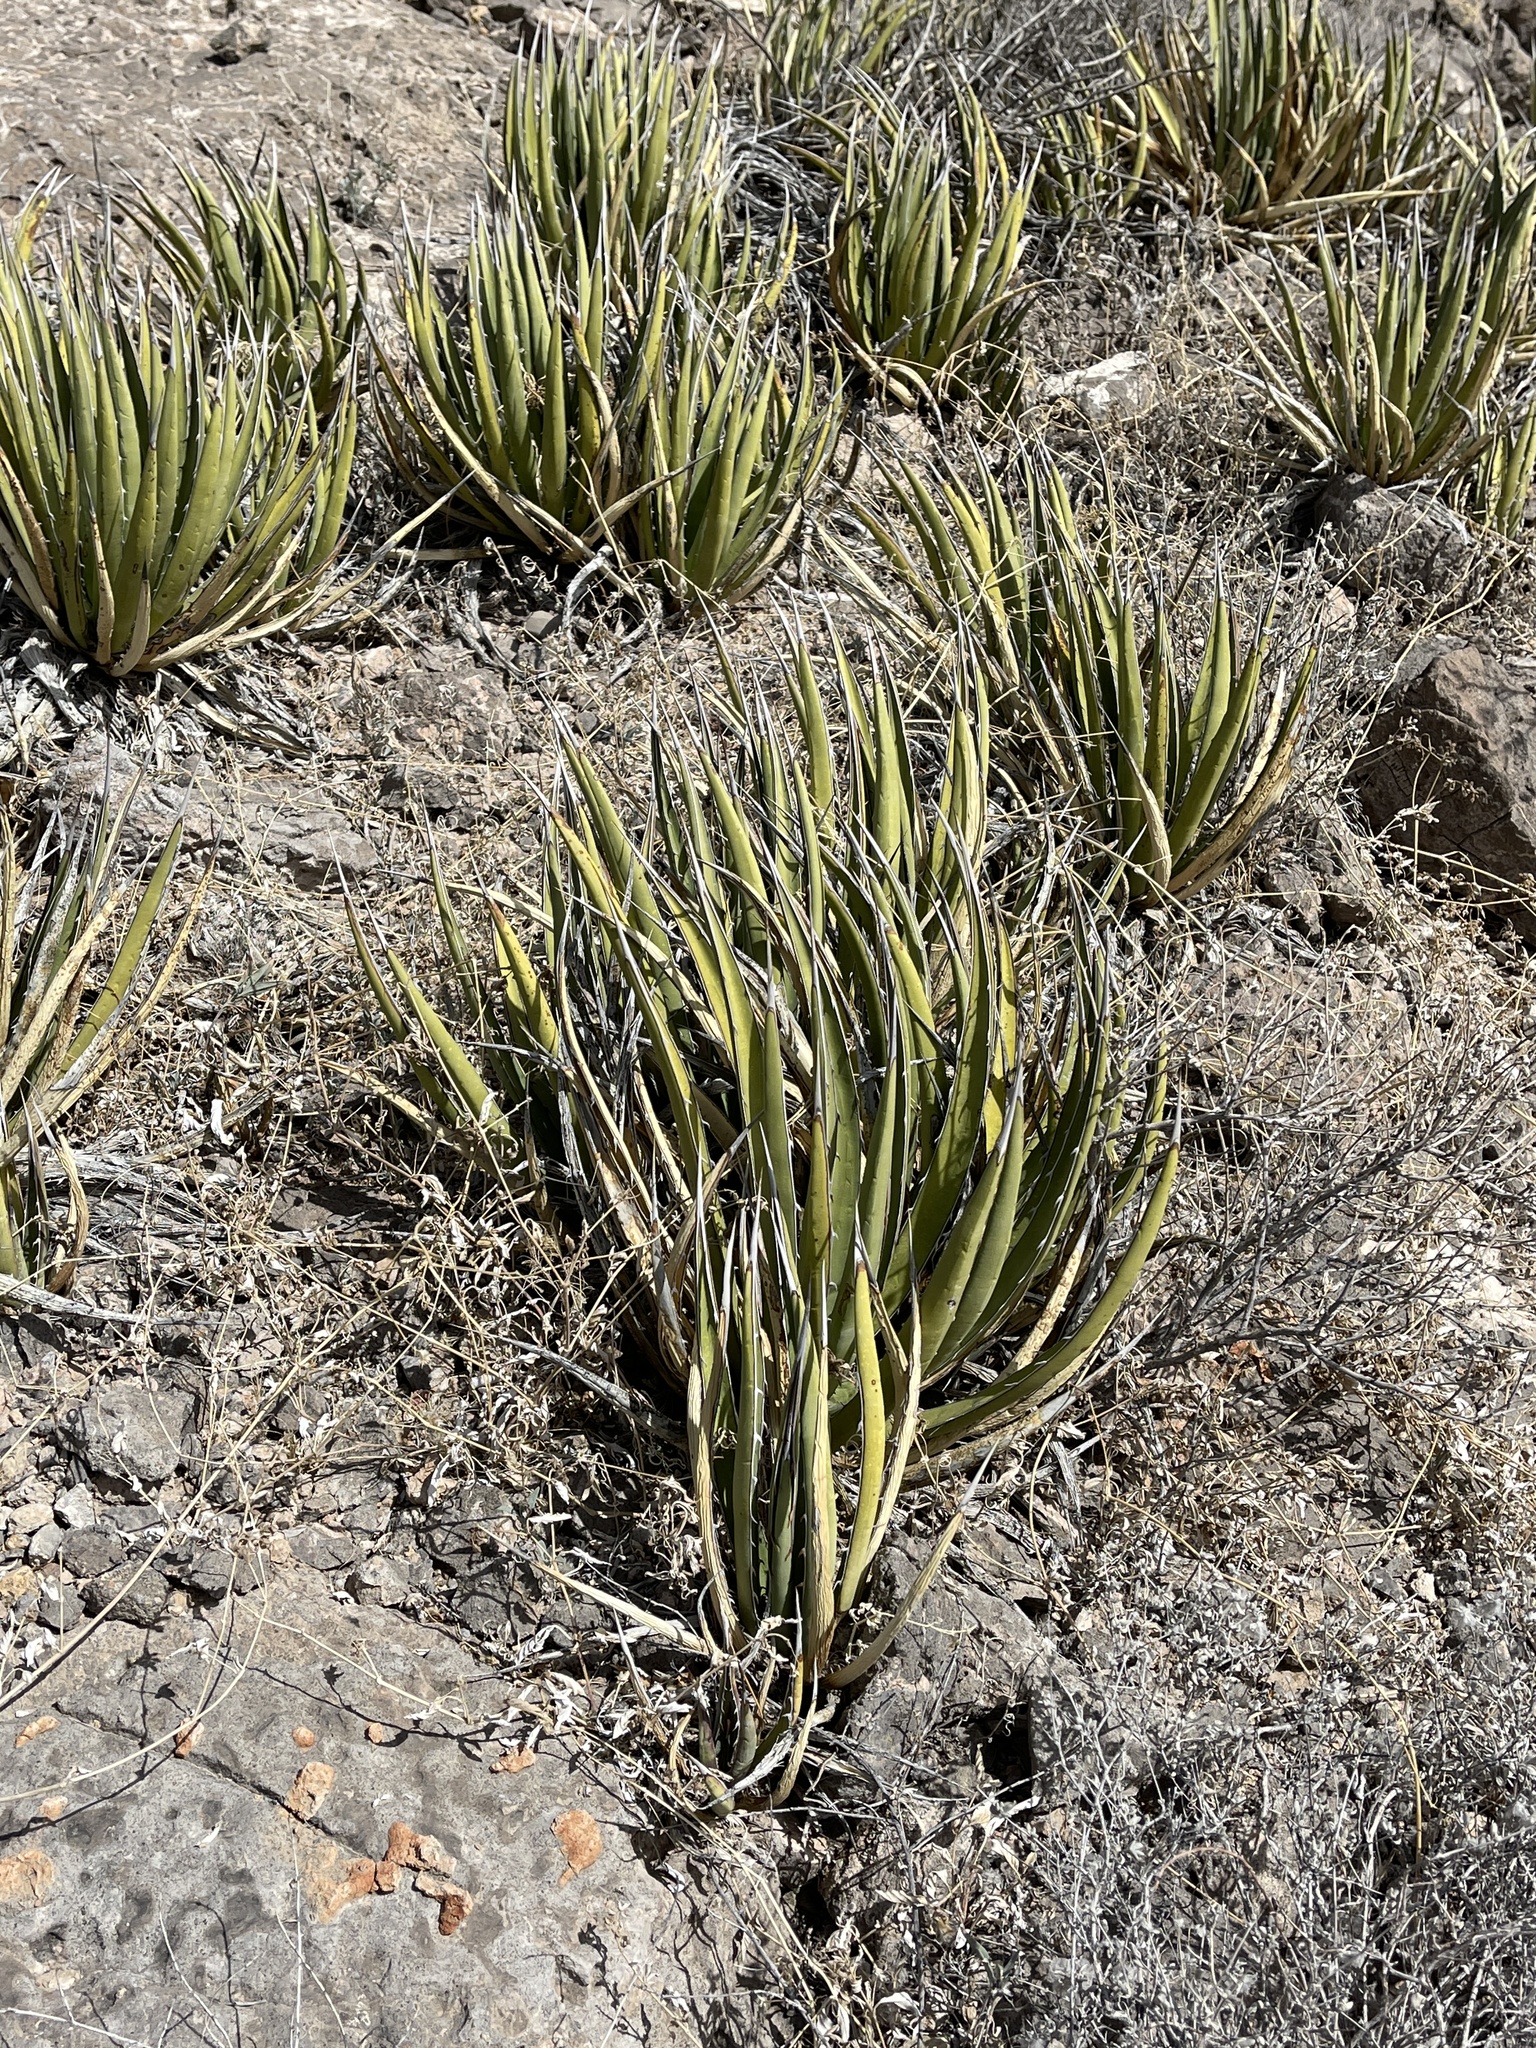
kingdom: Plantae
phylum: Tracheophyta
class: Liliopsida
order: Asparagales
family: Asparagaceae
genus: Agave
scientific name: Agave lechuguilla
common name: Lecheguilla agave
